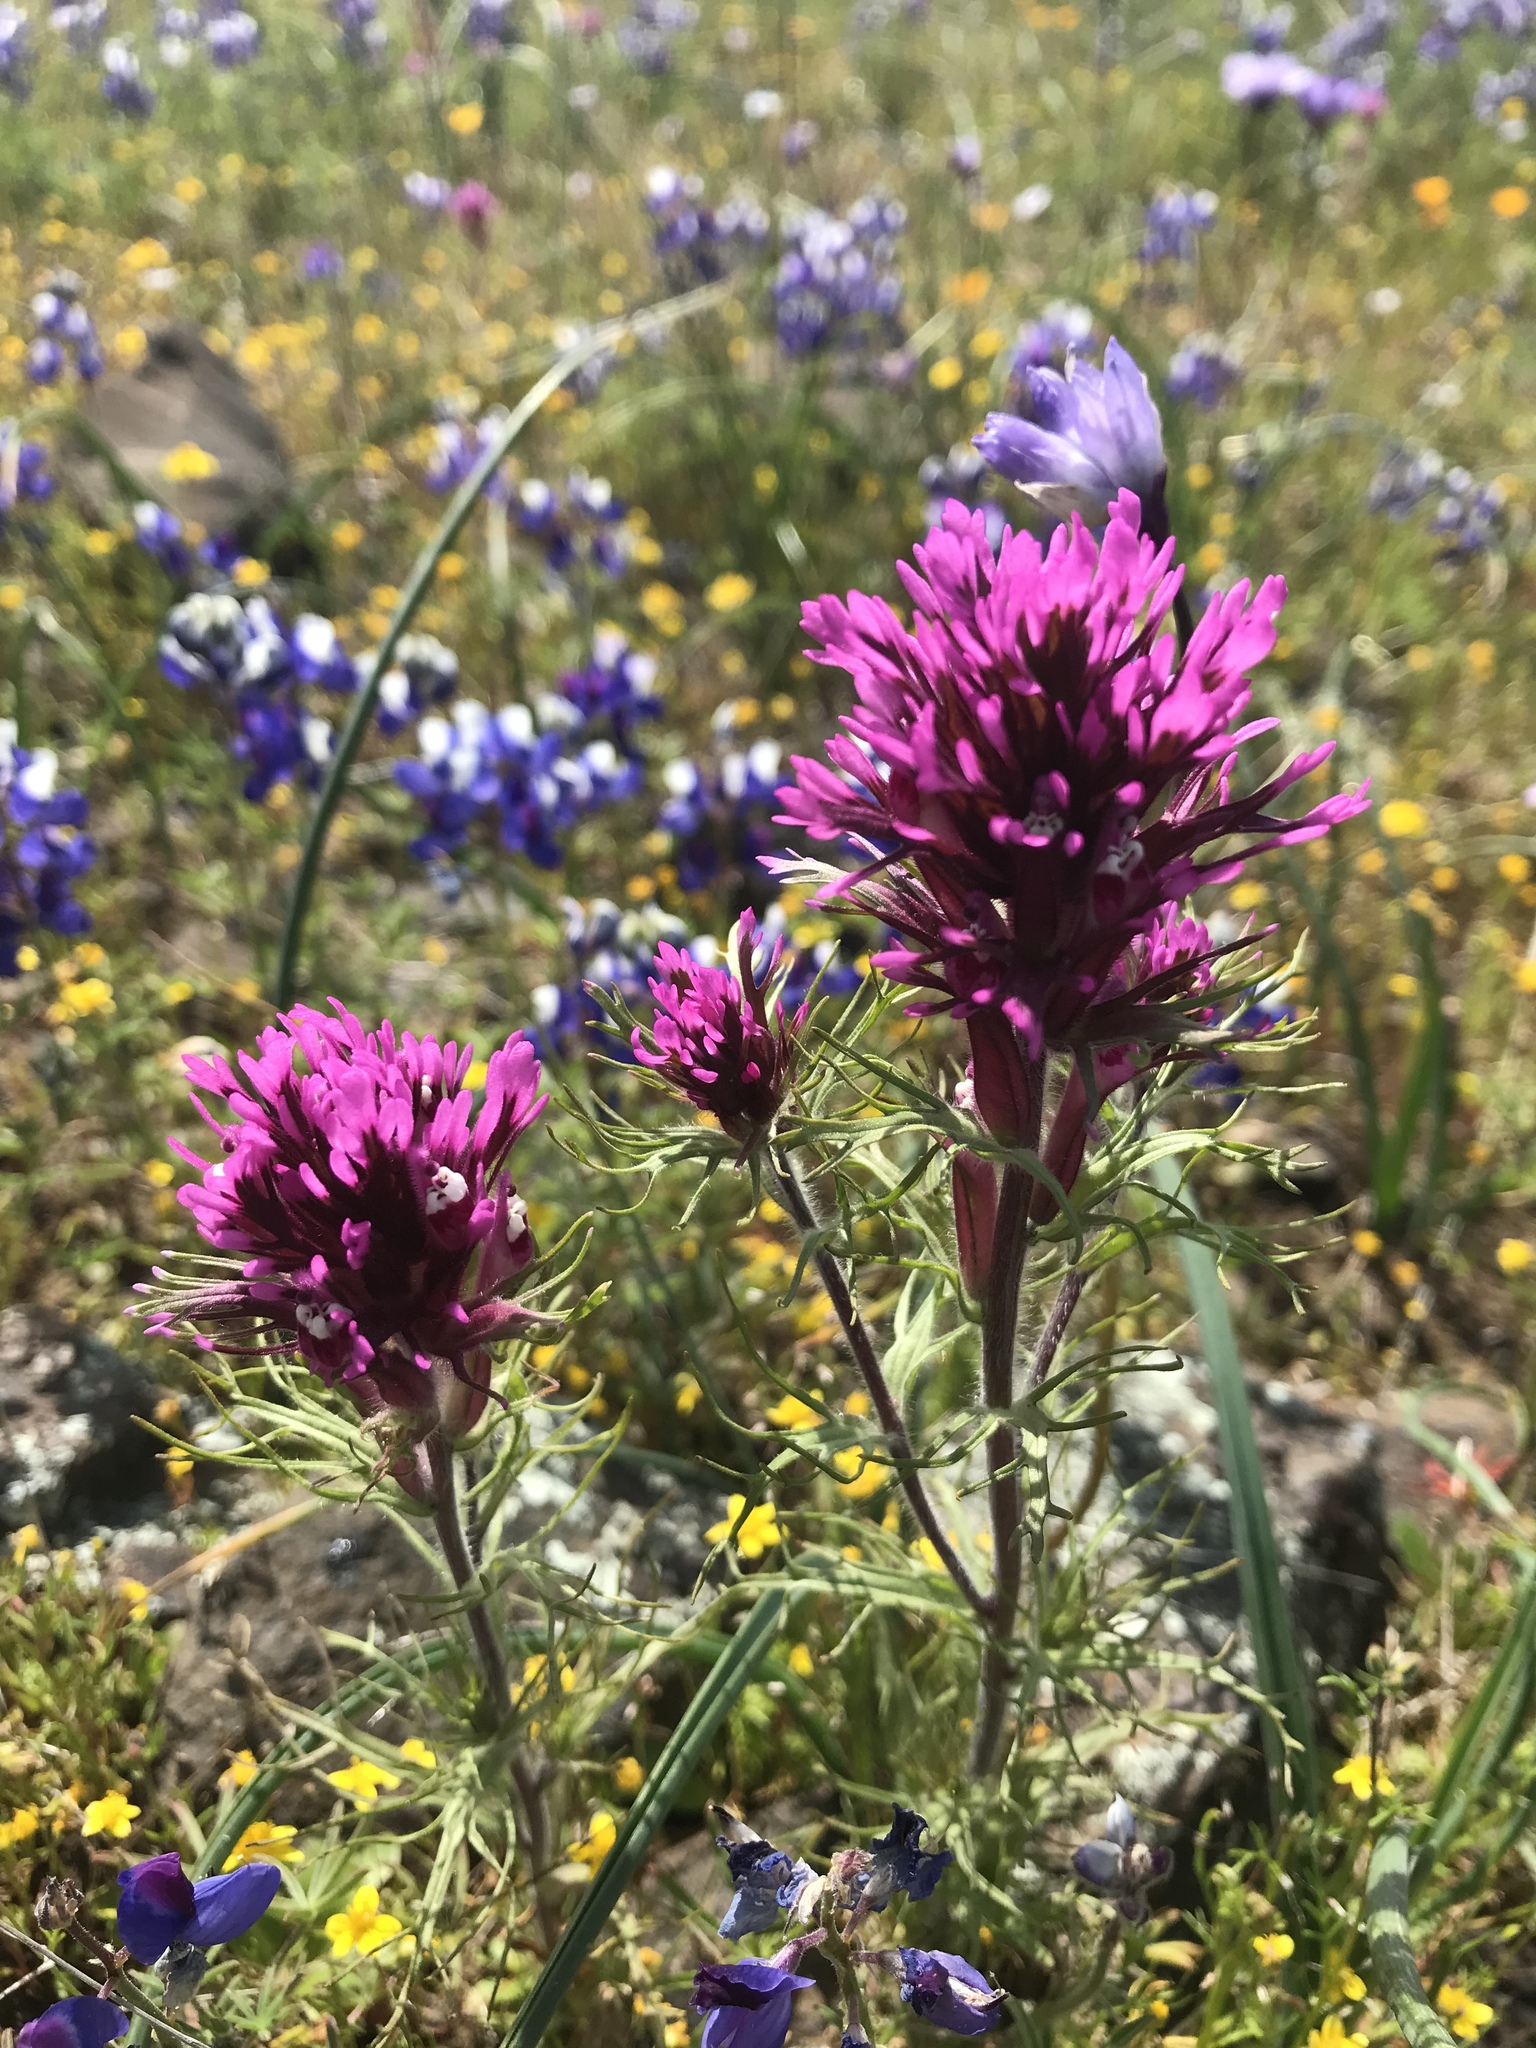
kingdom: Plantae
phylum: Tracheophyta
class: Magnoliopsida
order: Lamiales
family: Orobanchaceae
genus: Castilleja
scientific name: Castilleja exserta
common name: Purple owl-clover
